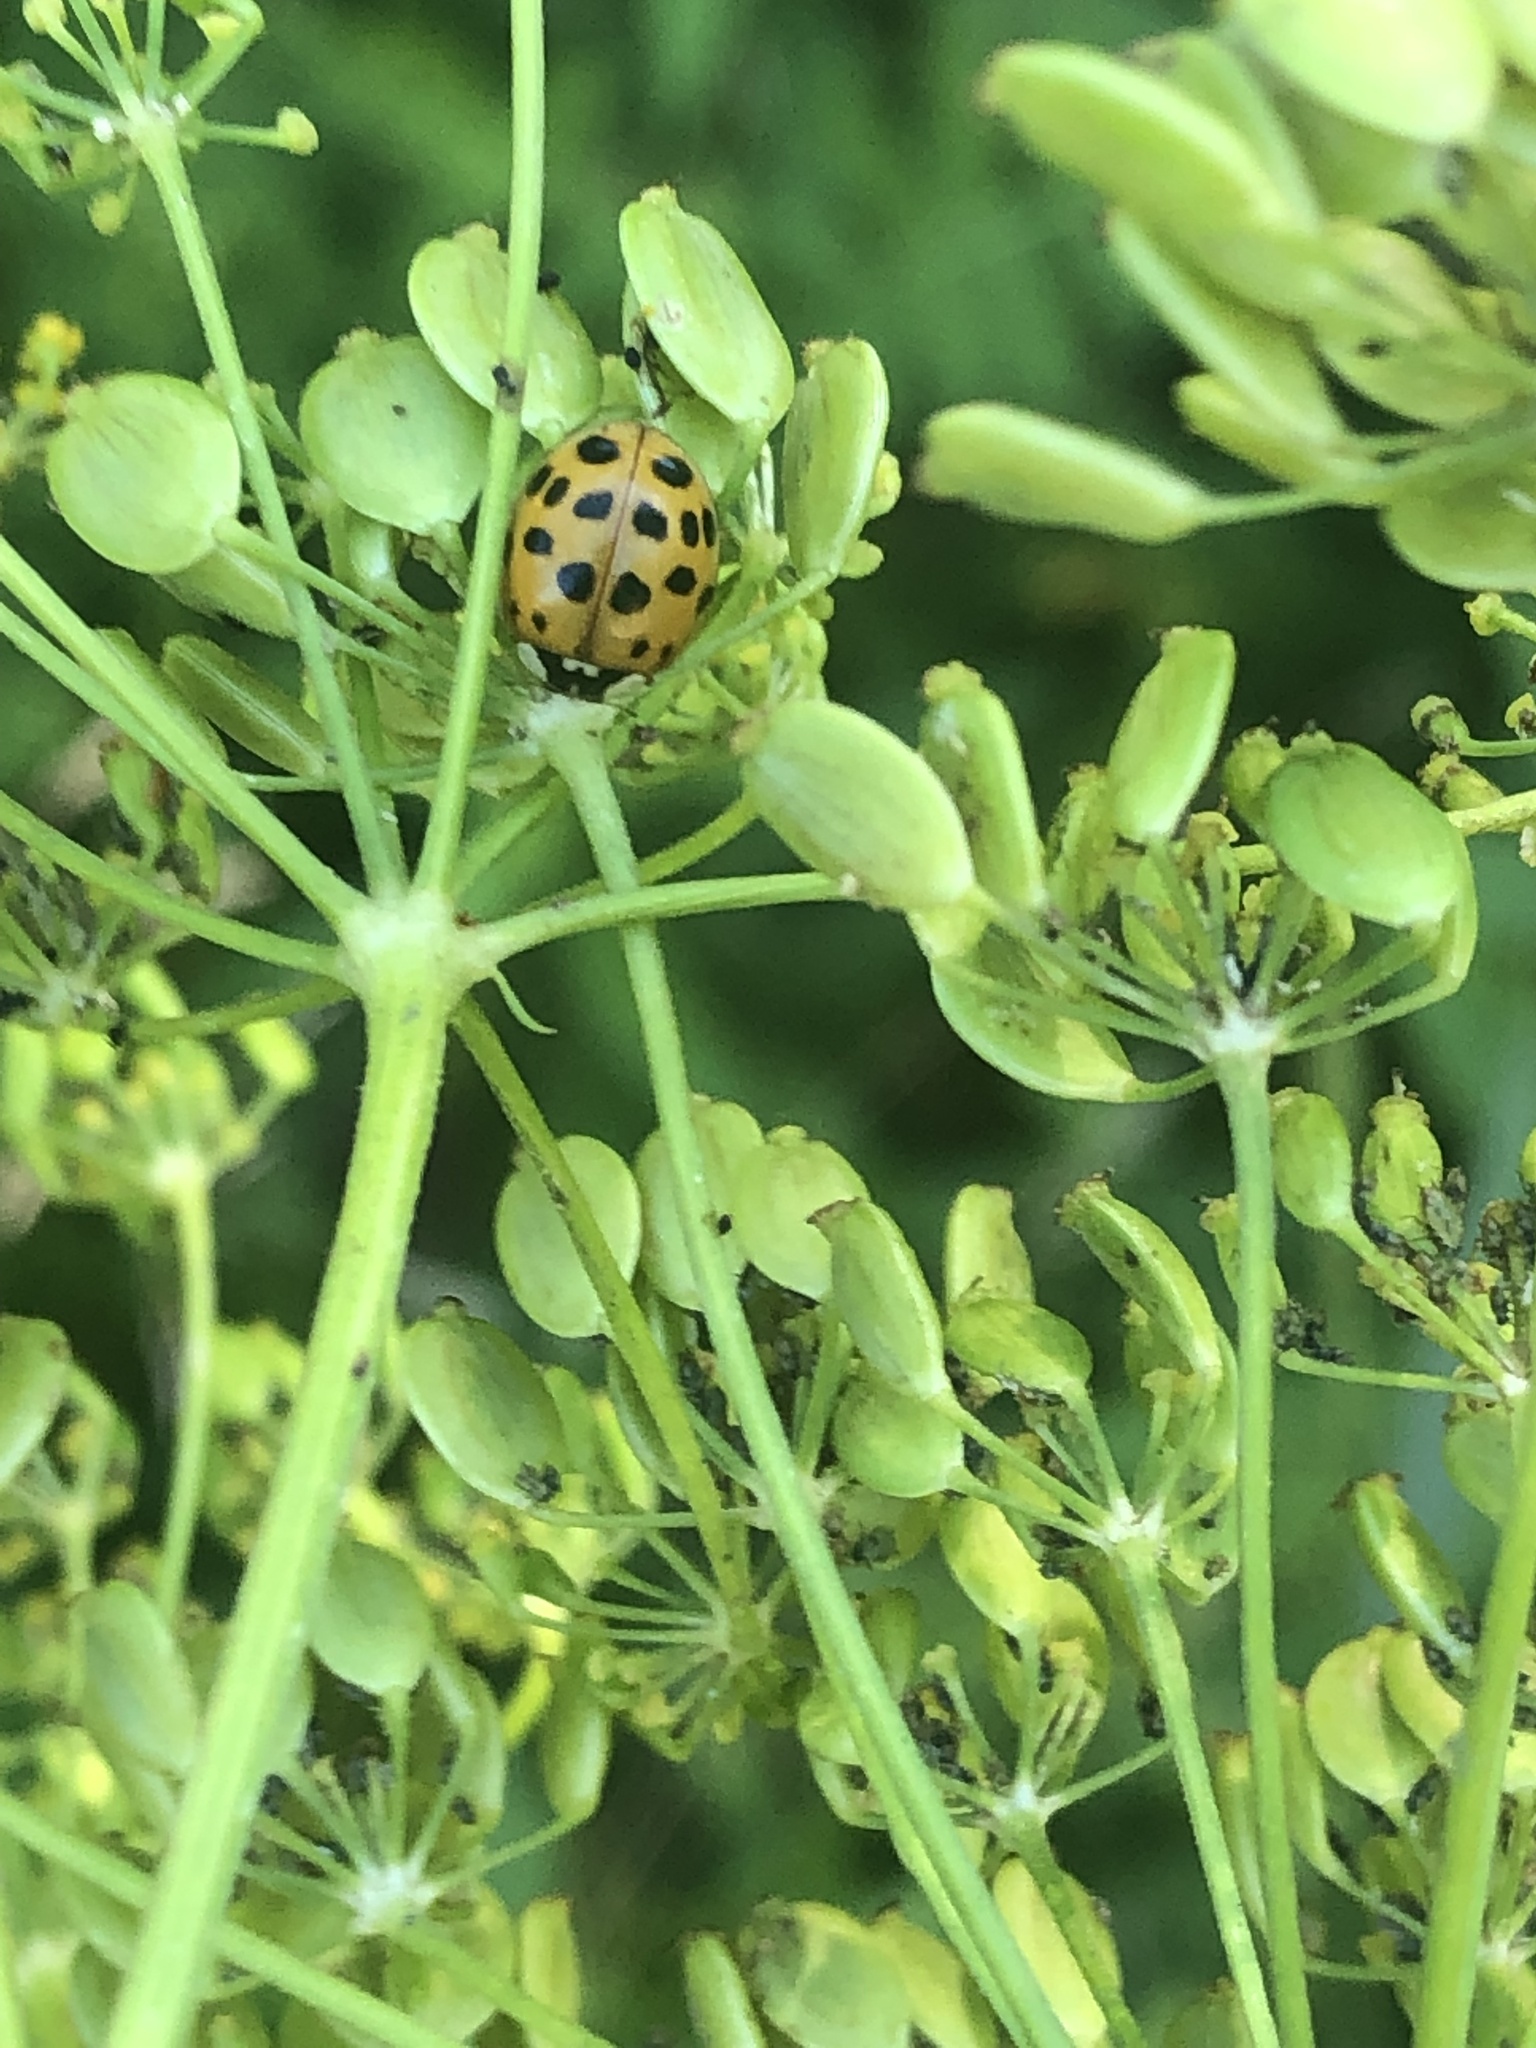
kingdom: Animalia
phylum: Arthropoda
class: Insecta
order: Coleoptera
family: Coccinellidae
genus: Harmonia
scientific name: Harmonia axyridis
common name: Harlequin ladybird
